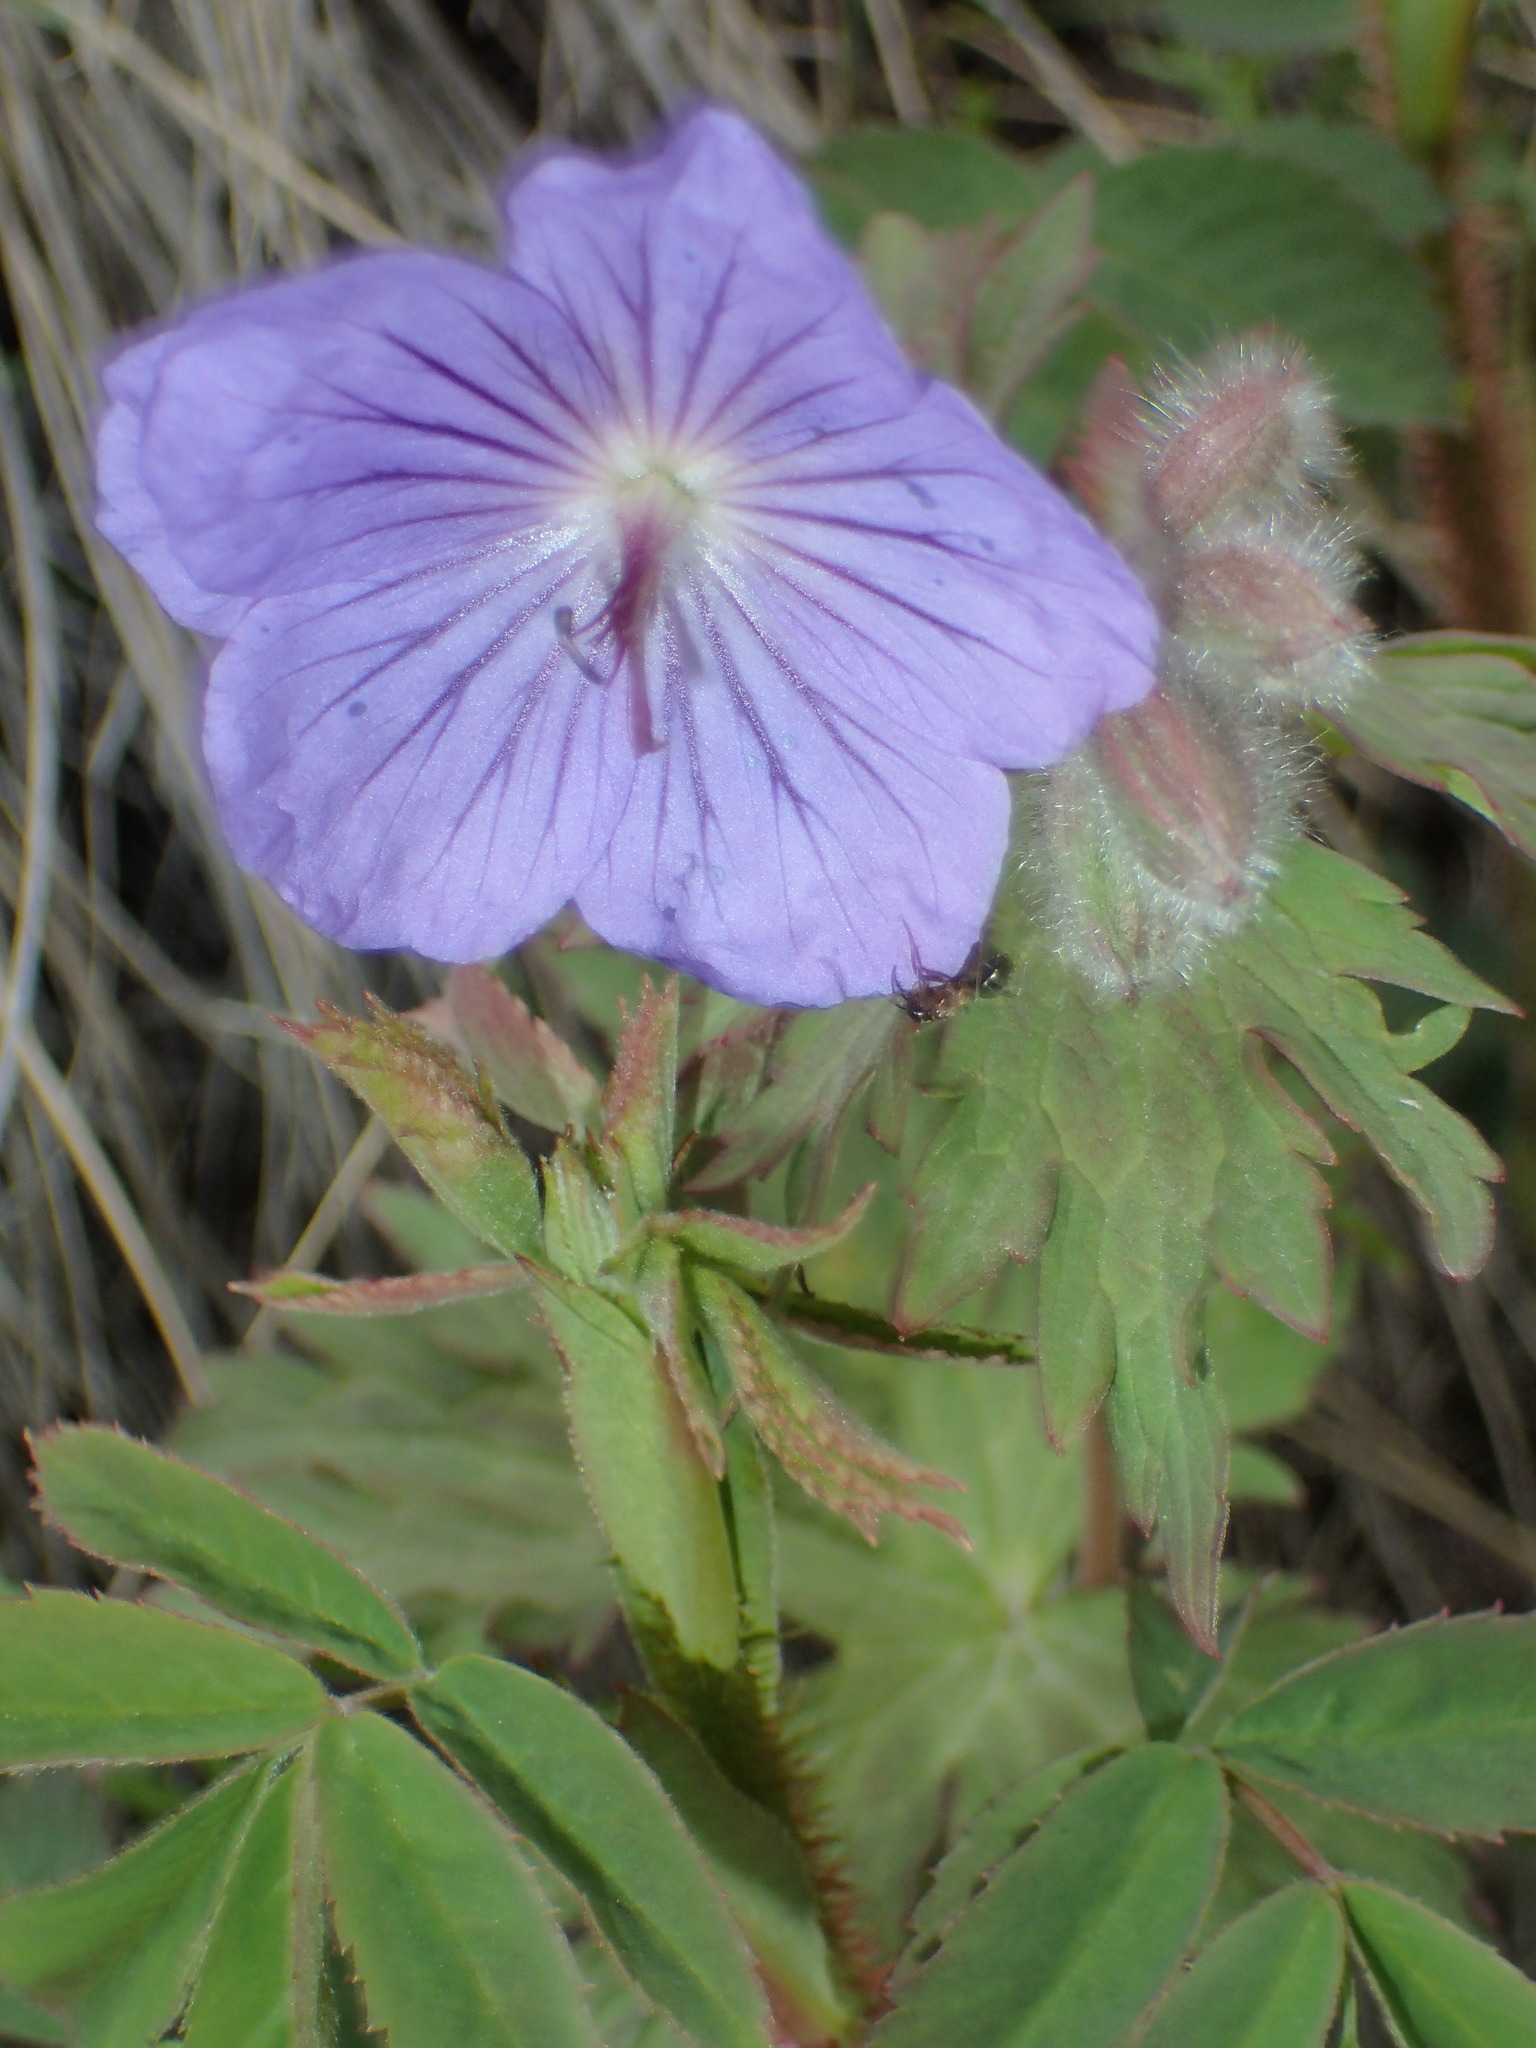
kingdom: Plantae
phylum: Tracheophyta
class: Magnoliopsida
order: Geraniales
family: Geraniaceae
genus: Geranium
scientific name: Geranium erianthum
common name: Northern crane's-bill
